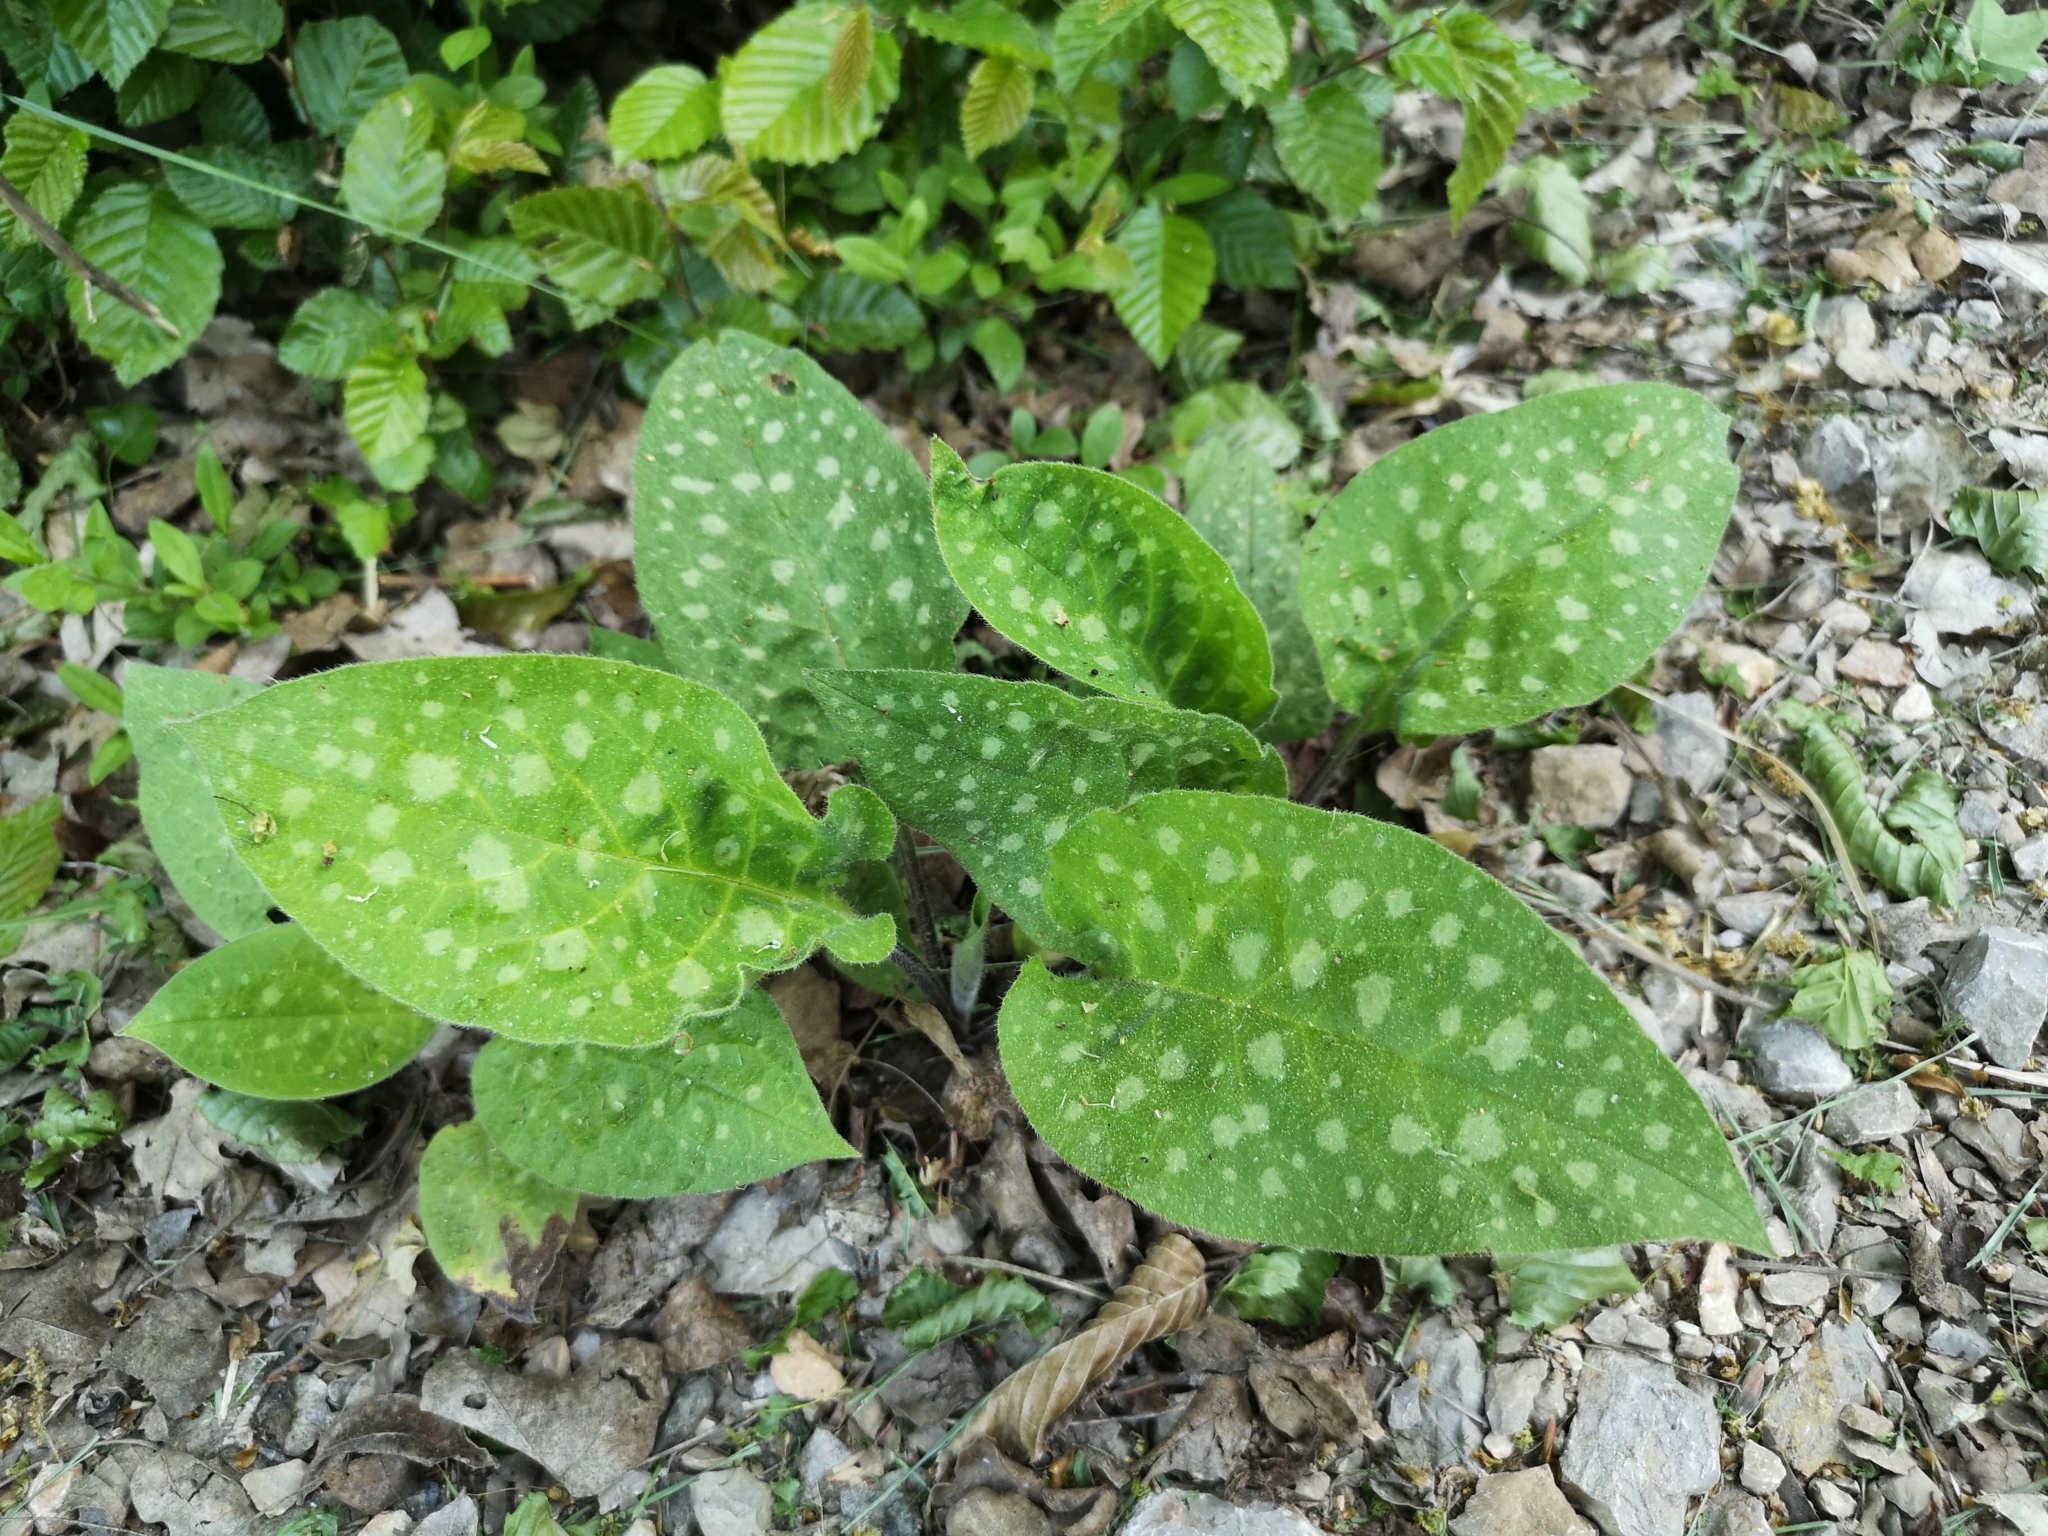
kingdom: Plantae
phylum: Tracheophyta
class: Magnoliopsida
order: Boraginales
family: Boraginaceae
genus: Pulmonaria
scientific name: Pulmonaria officinalis
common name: Lungwort
